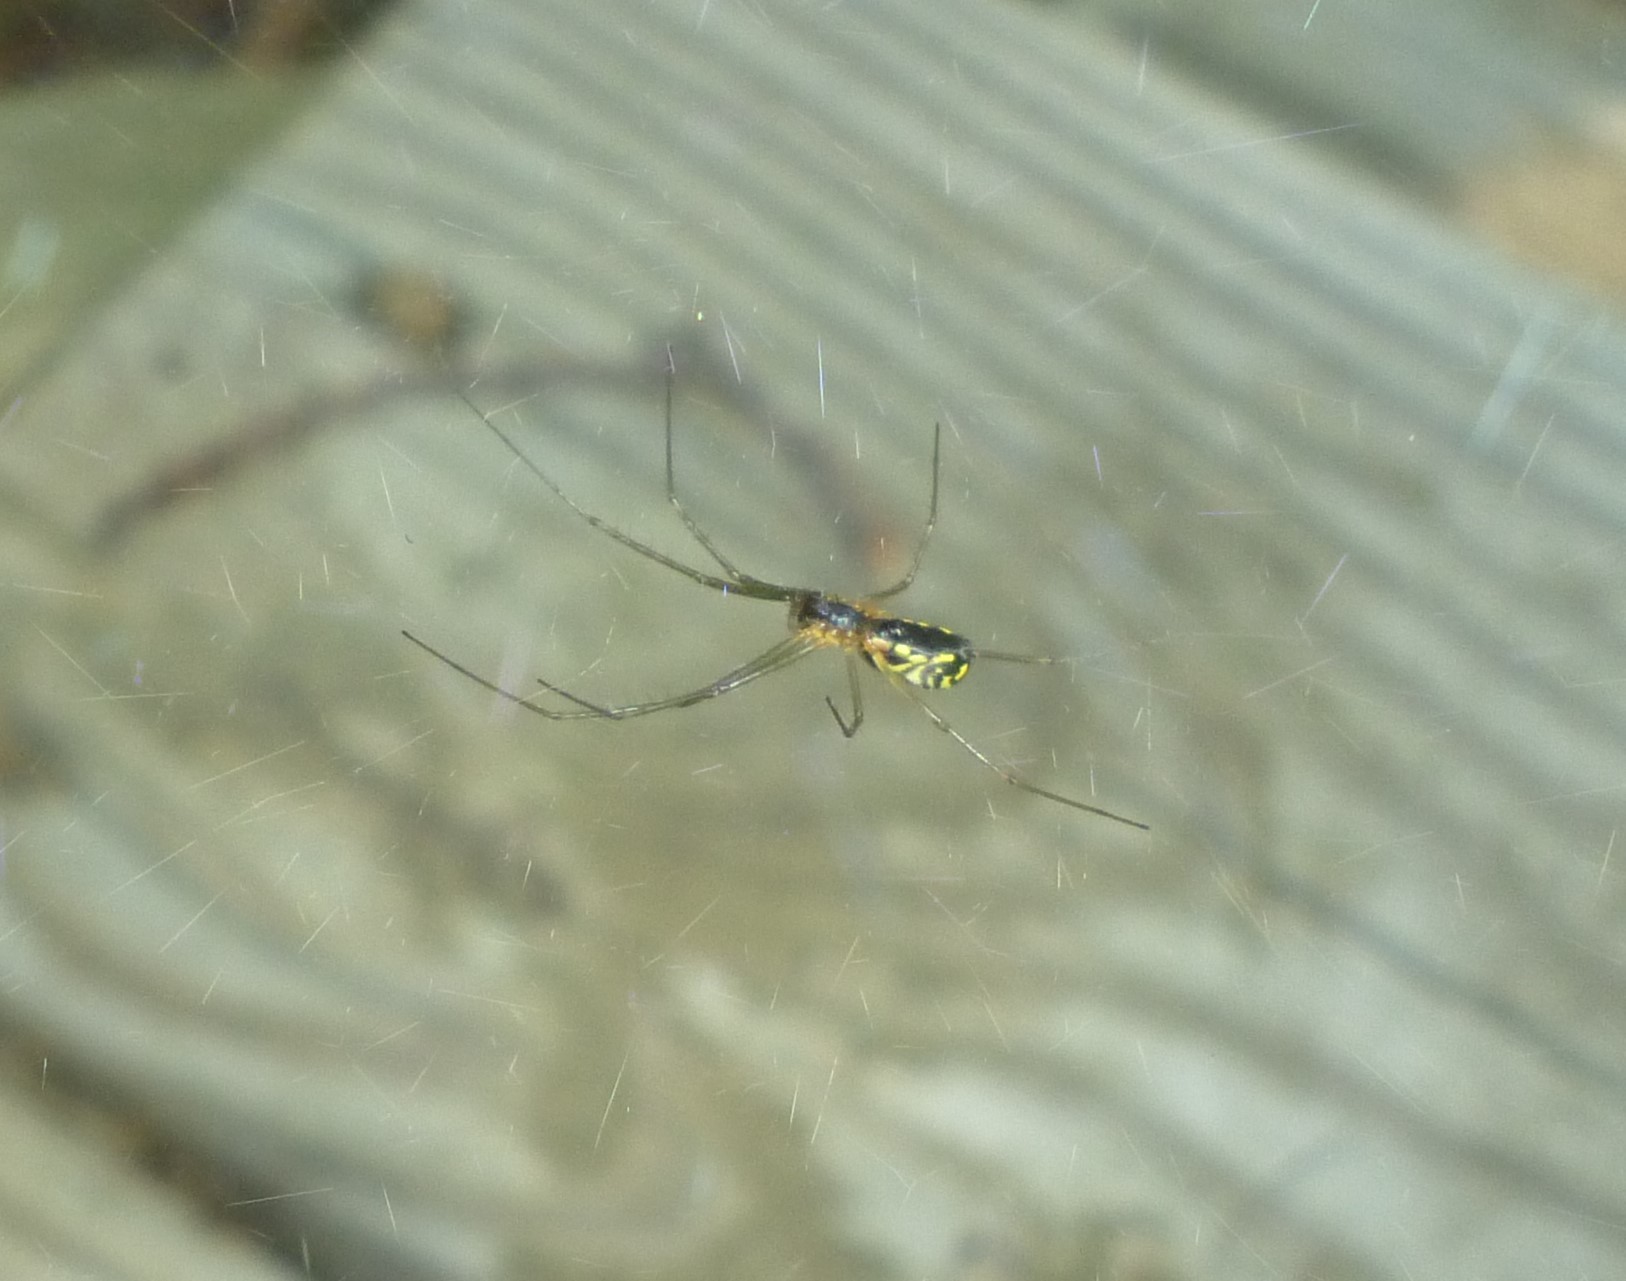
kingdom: Animalia
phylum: Arthropoda
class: Arachnida
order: Araneae
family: Linyphiidae
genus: Neriene
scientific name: Neriene radiata
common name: Filmy dome spider
